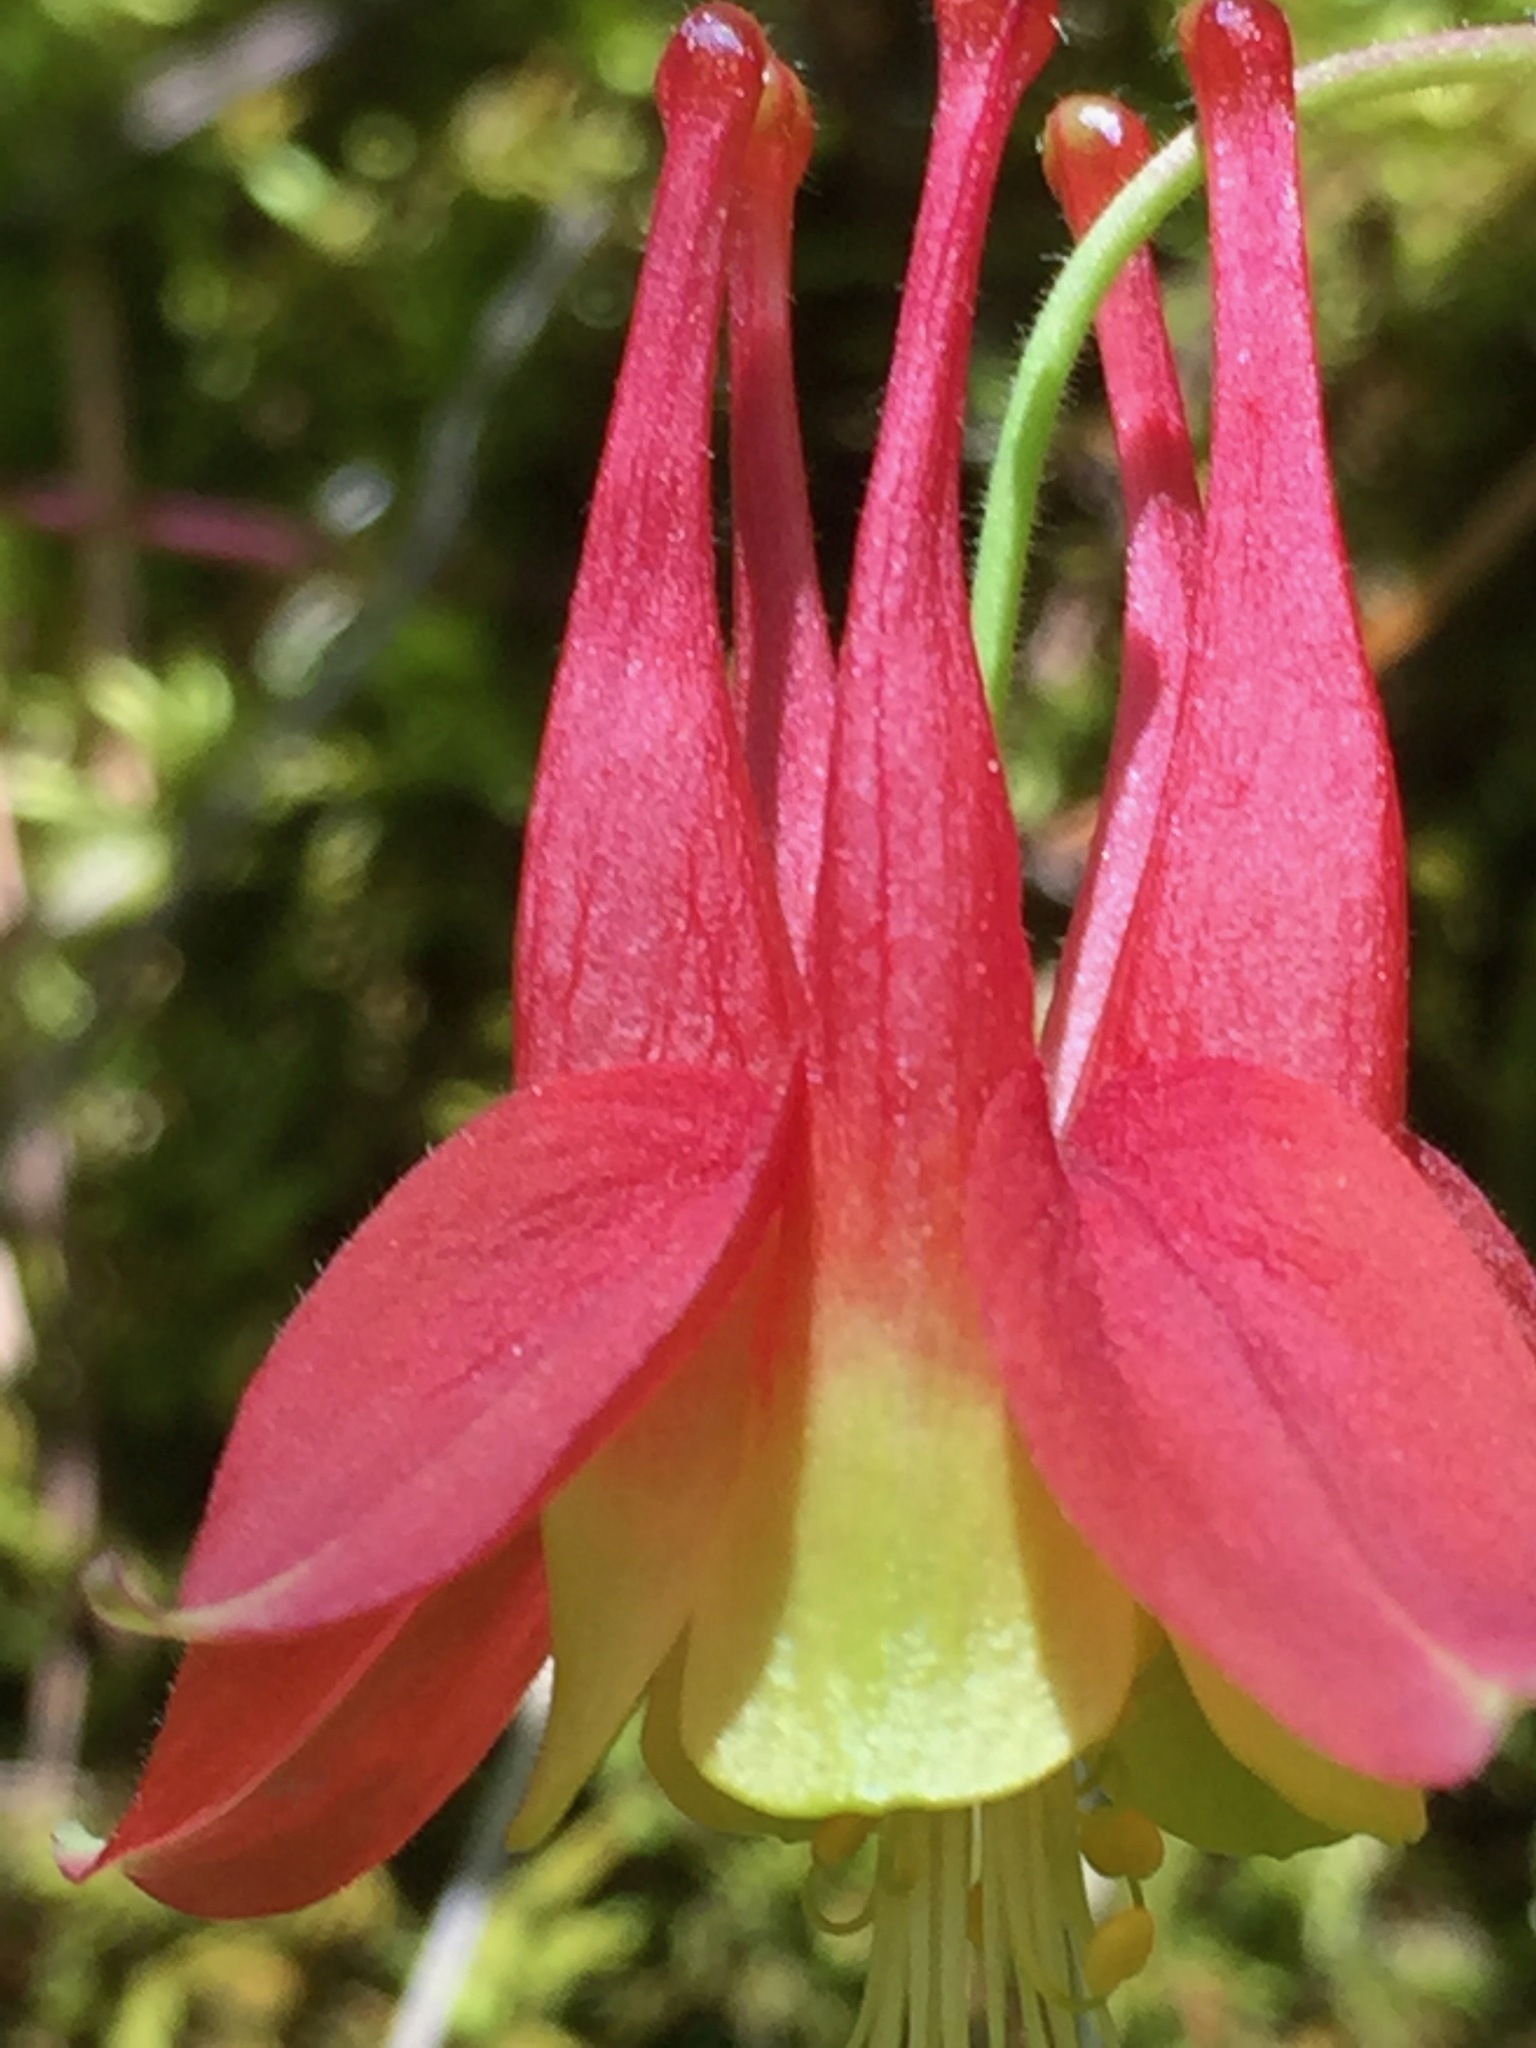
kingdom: Plantae
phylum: Tracheophyta
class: Magnoliopsida
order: Ranunculales
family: Ranunculaceae
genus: Aquilegia
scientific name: Aquilegia canadensis
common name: American columbine
